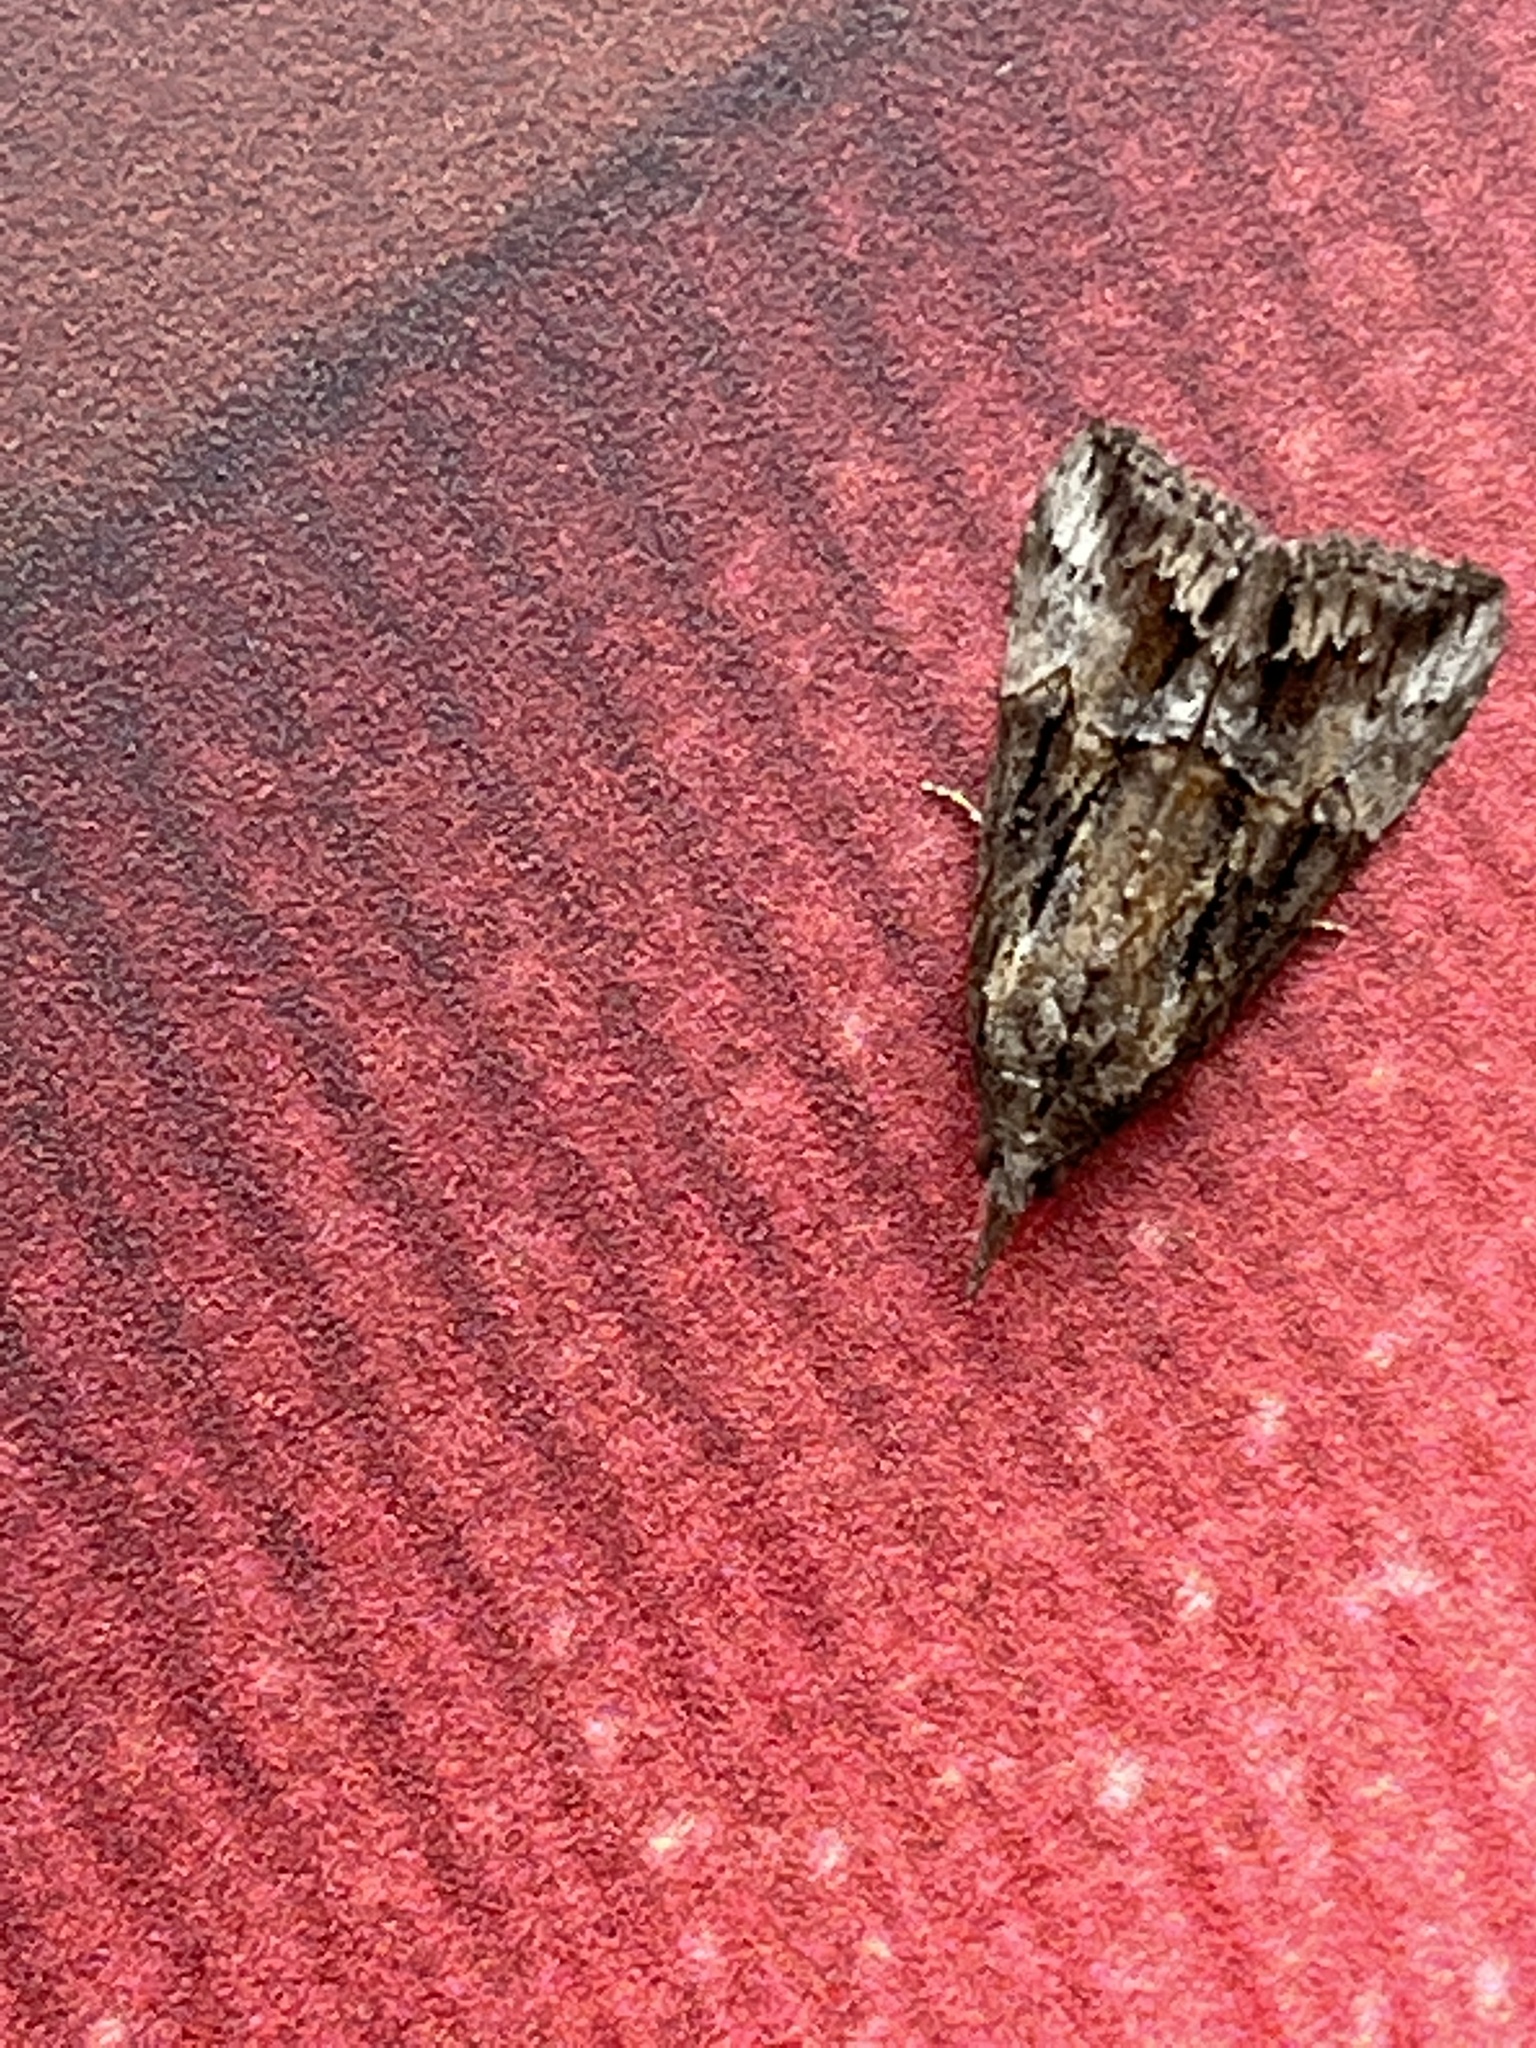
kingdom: Animalia
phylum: Arthropoda
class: Insecta
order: Lepidoptera
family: Erebidae
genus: Hypena
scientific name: Hypena scabra
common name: Green cloverworm
